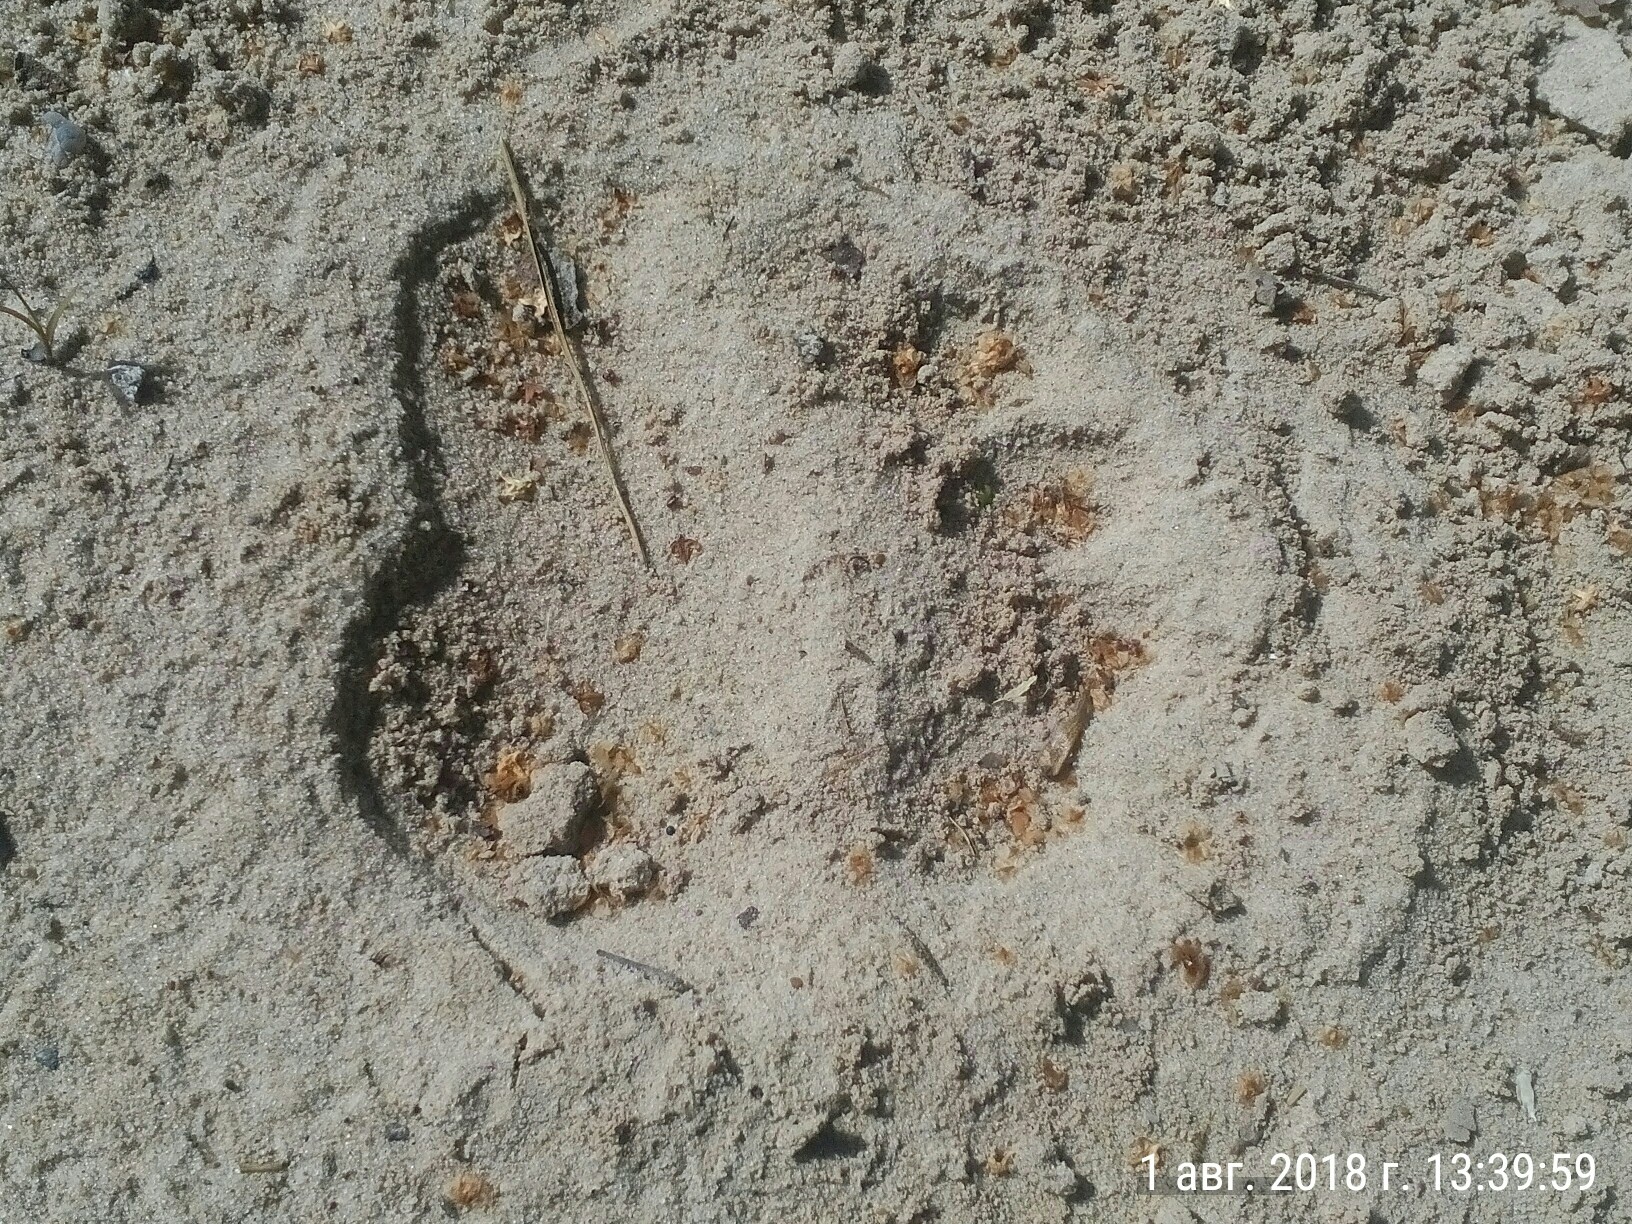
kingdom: Animalia
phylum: Chordata
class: Mammalia
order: Carnivora
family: Ursidae
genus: Ursus
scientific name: Ursus arctos
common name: Brown bear
